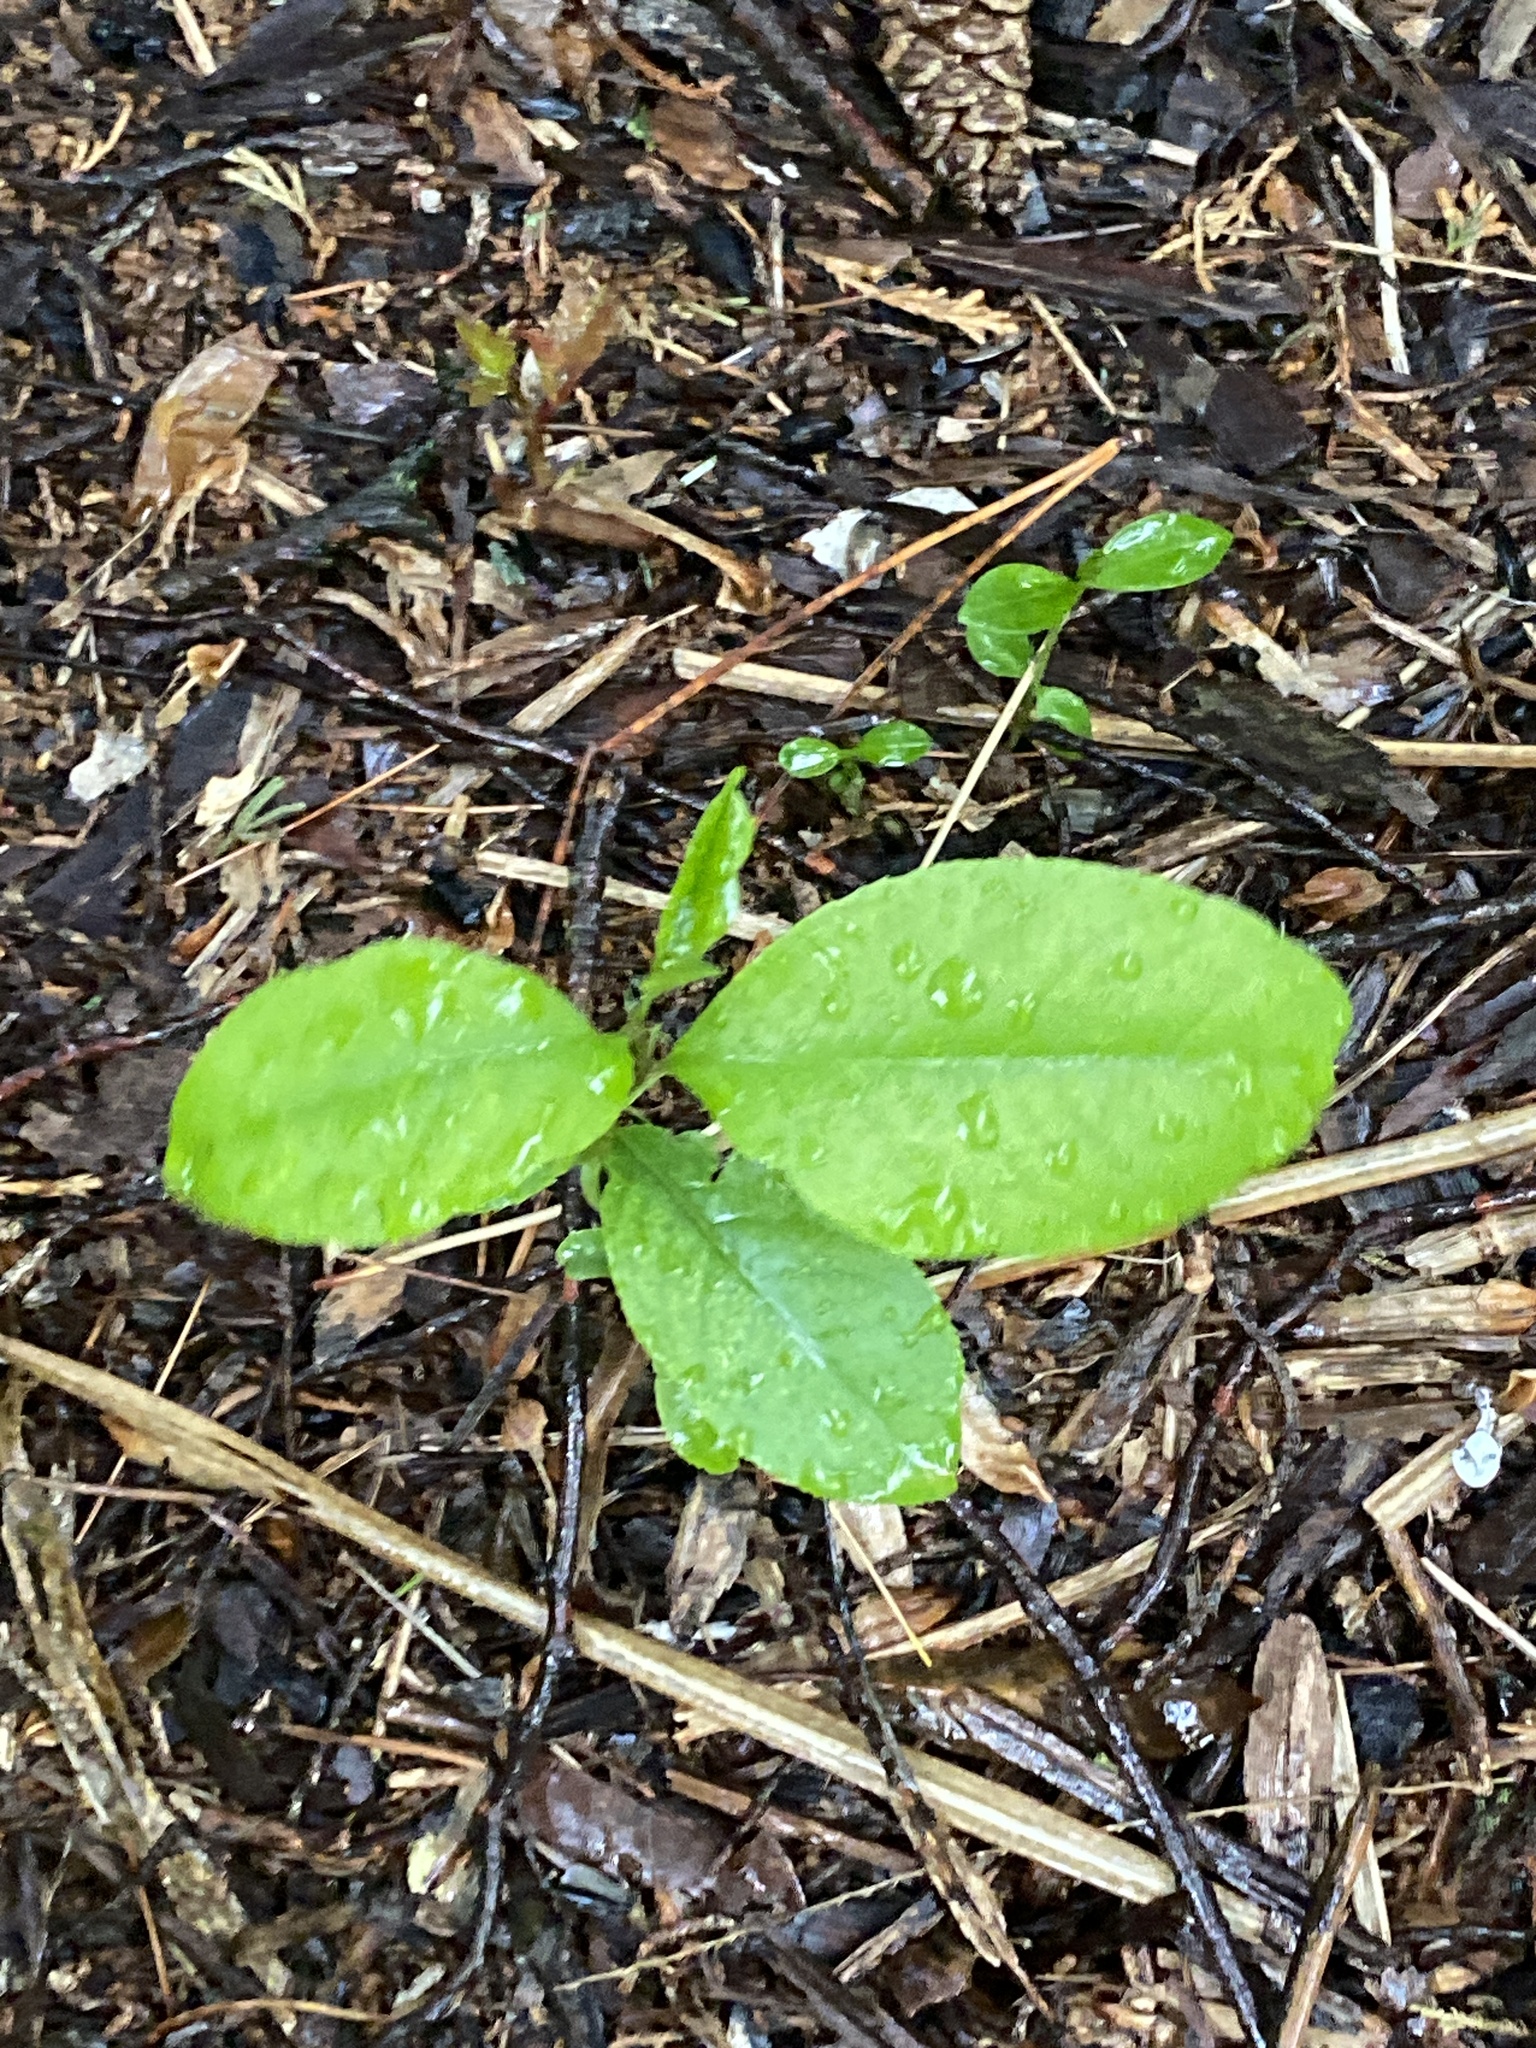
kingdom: Plantae
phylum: Tracheophyta
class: Magnoliopsida
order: Rosales
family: Rosaceae
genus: Prunus
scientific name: Prunus serotina
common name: Black cherry
